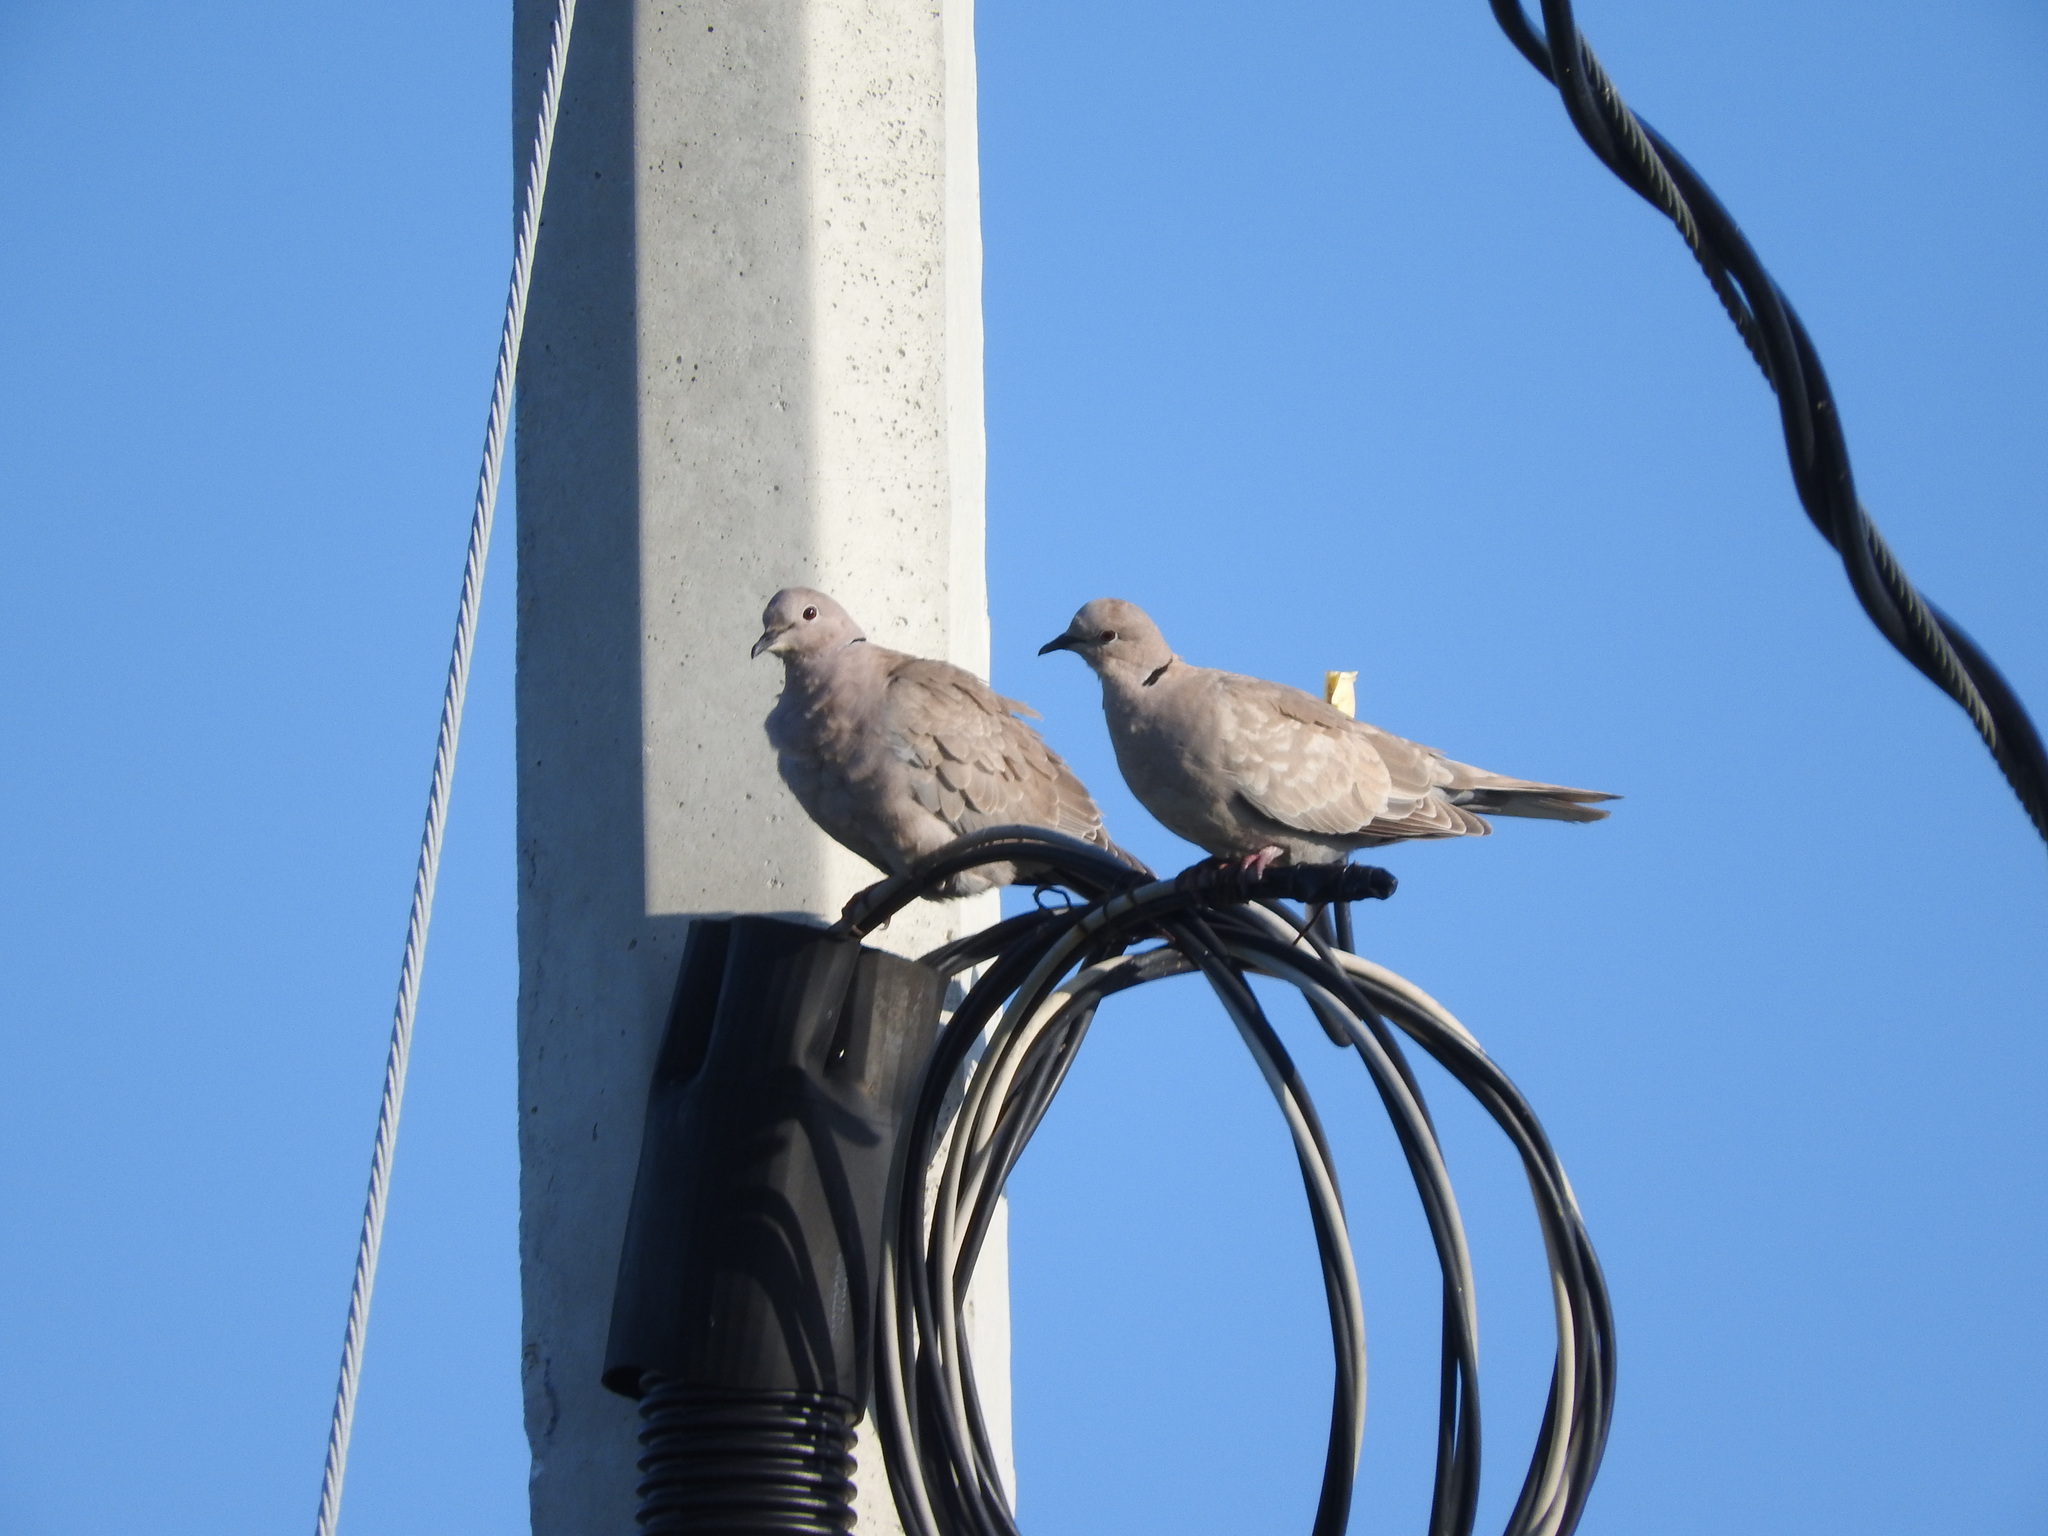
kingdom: Animalia
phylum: Chordata
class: Aves
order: Columbiformes
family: Columbidae
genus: Streptopelia
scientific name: Streptopelia decaocto
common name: Eurasian collared dove
